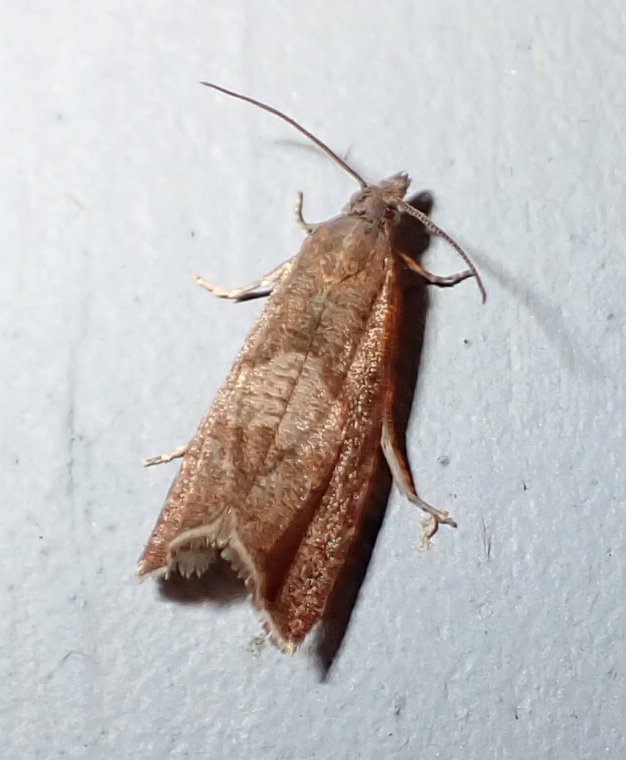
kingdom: Animalia
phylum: Arthropoda
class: Insecta
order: Lepidoptera
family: Tortricidae
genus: Dichrorampha
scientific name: Dichrorampha acuminatana
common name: Sharp-winged drill
